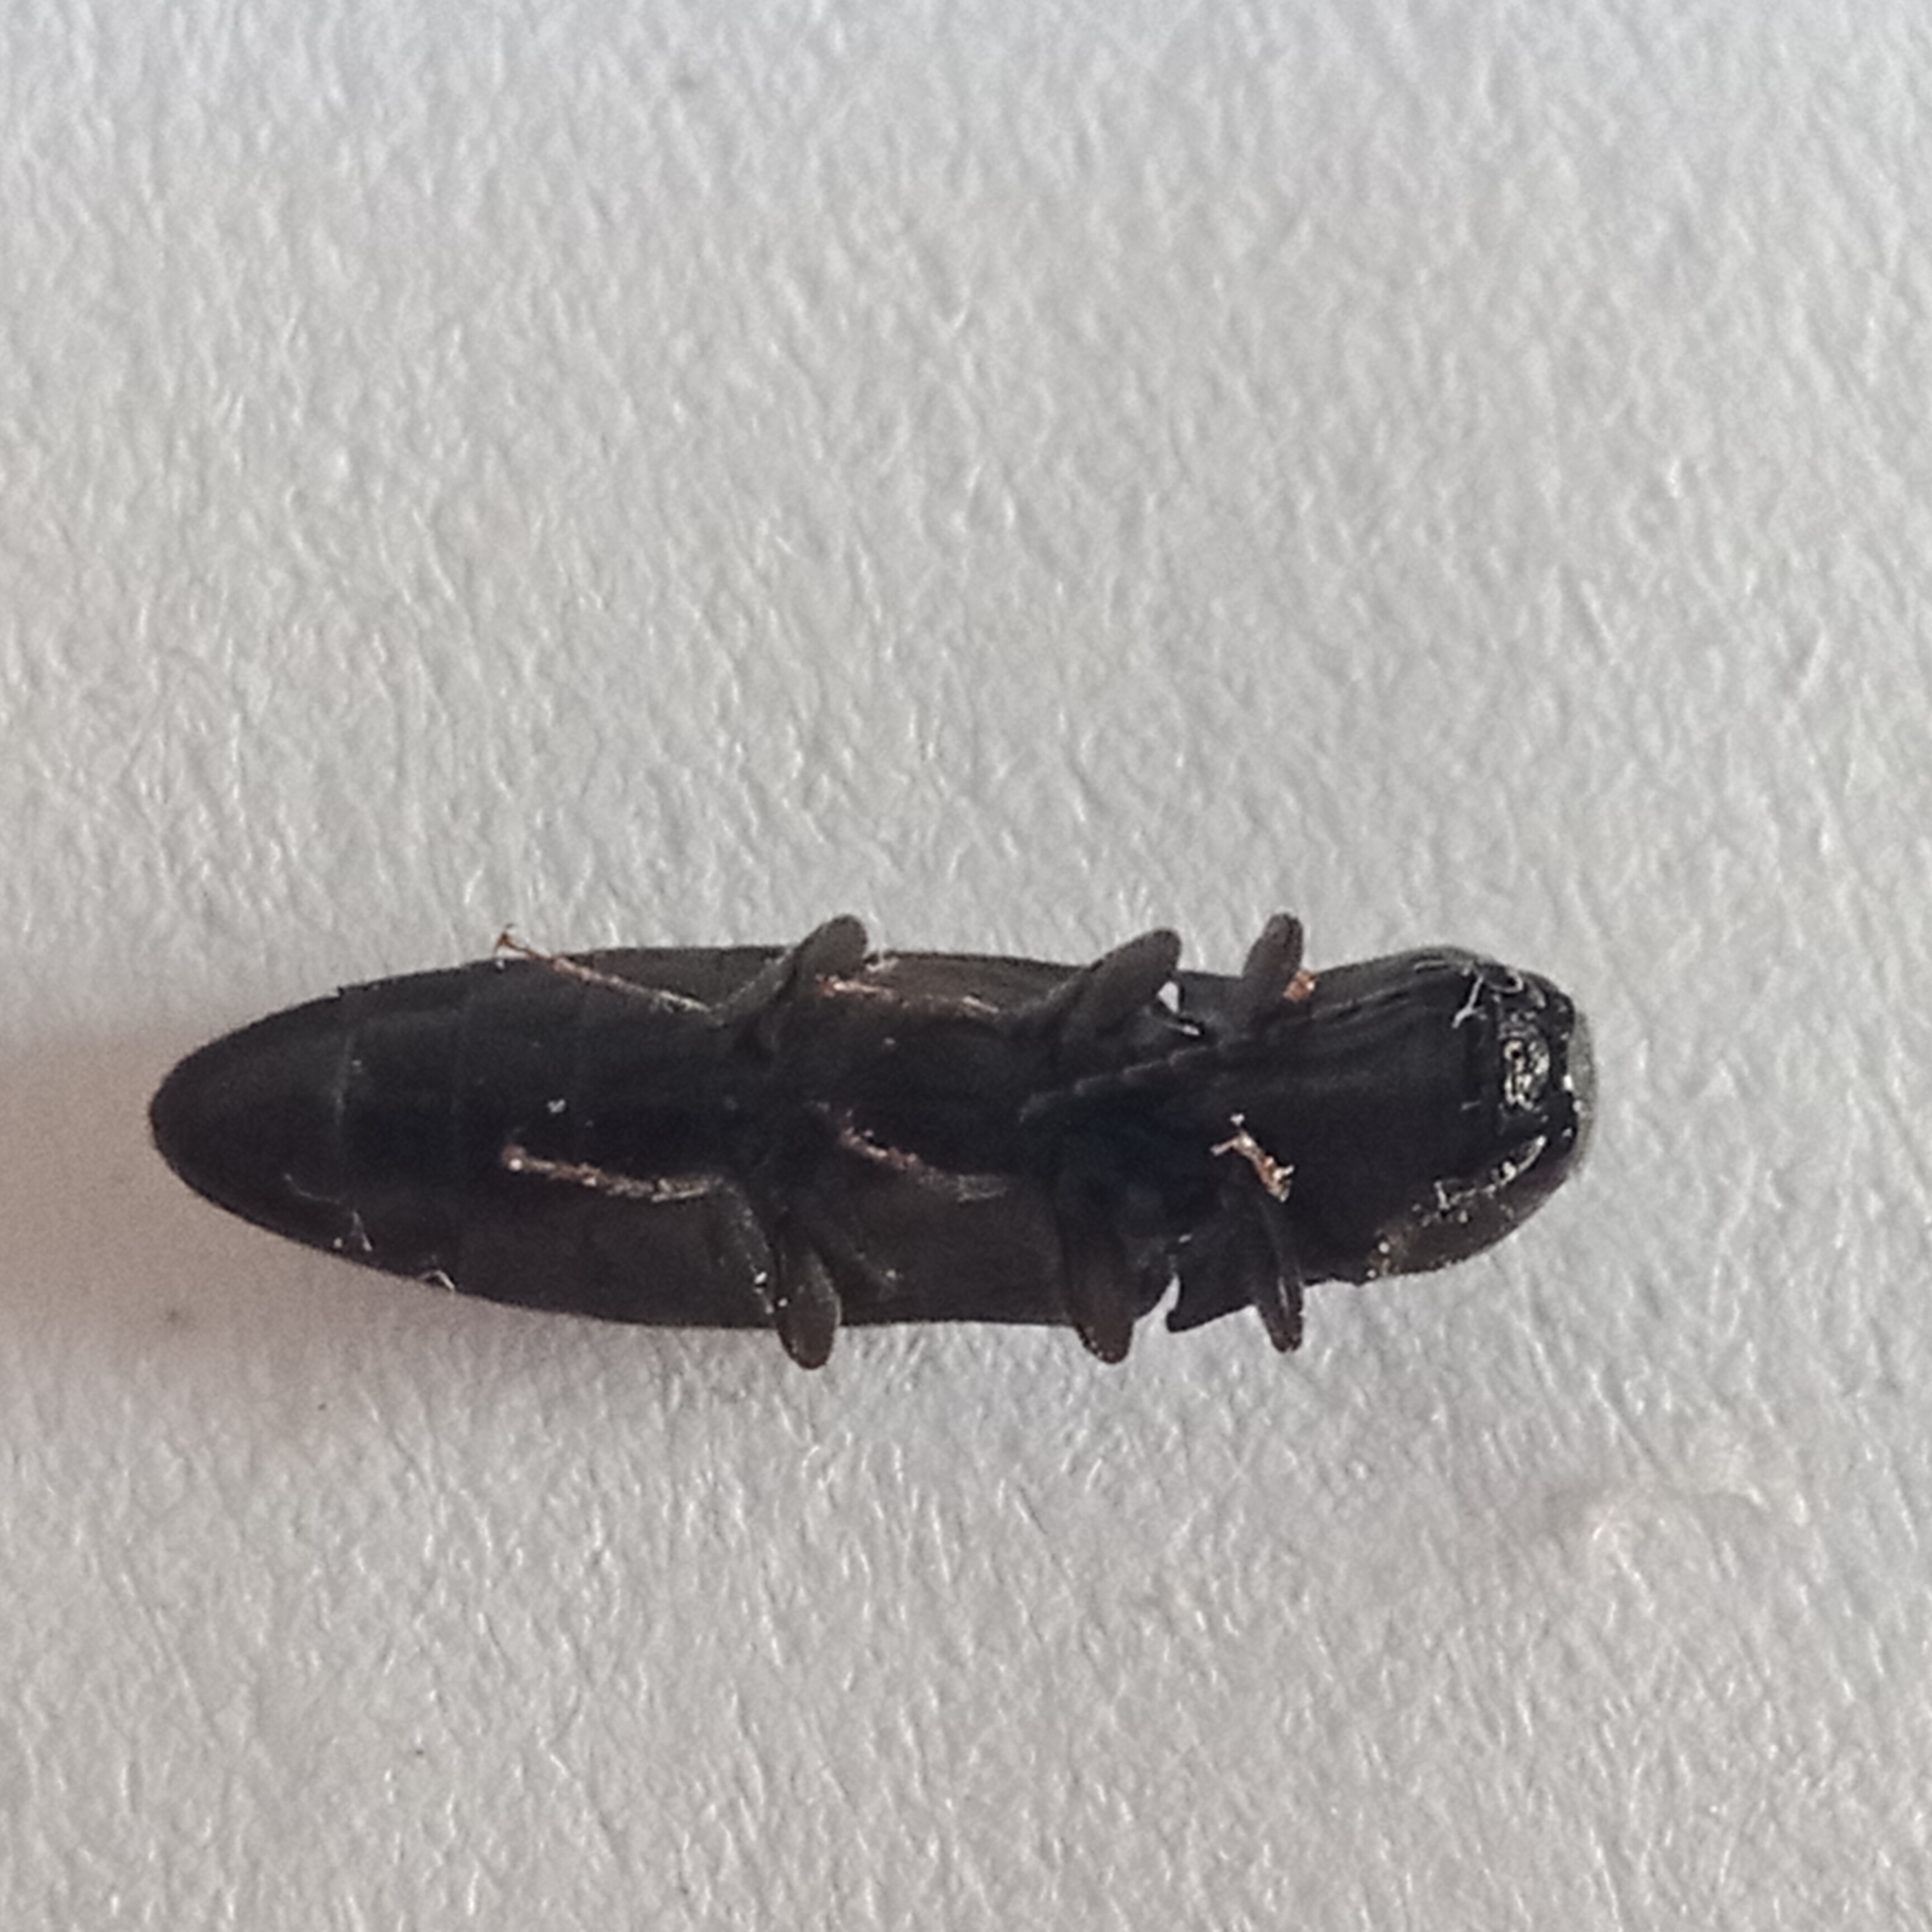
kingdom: Animalia
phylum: Arthropoda
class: Insecta
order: Coleoptera
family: Elateridae
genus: Ectinus
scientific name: Ectinus aterrimus
